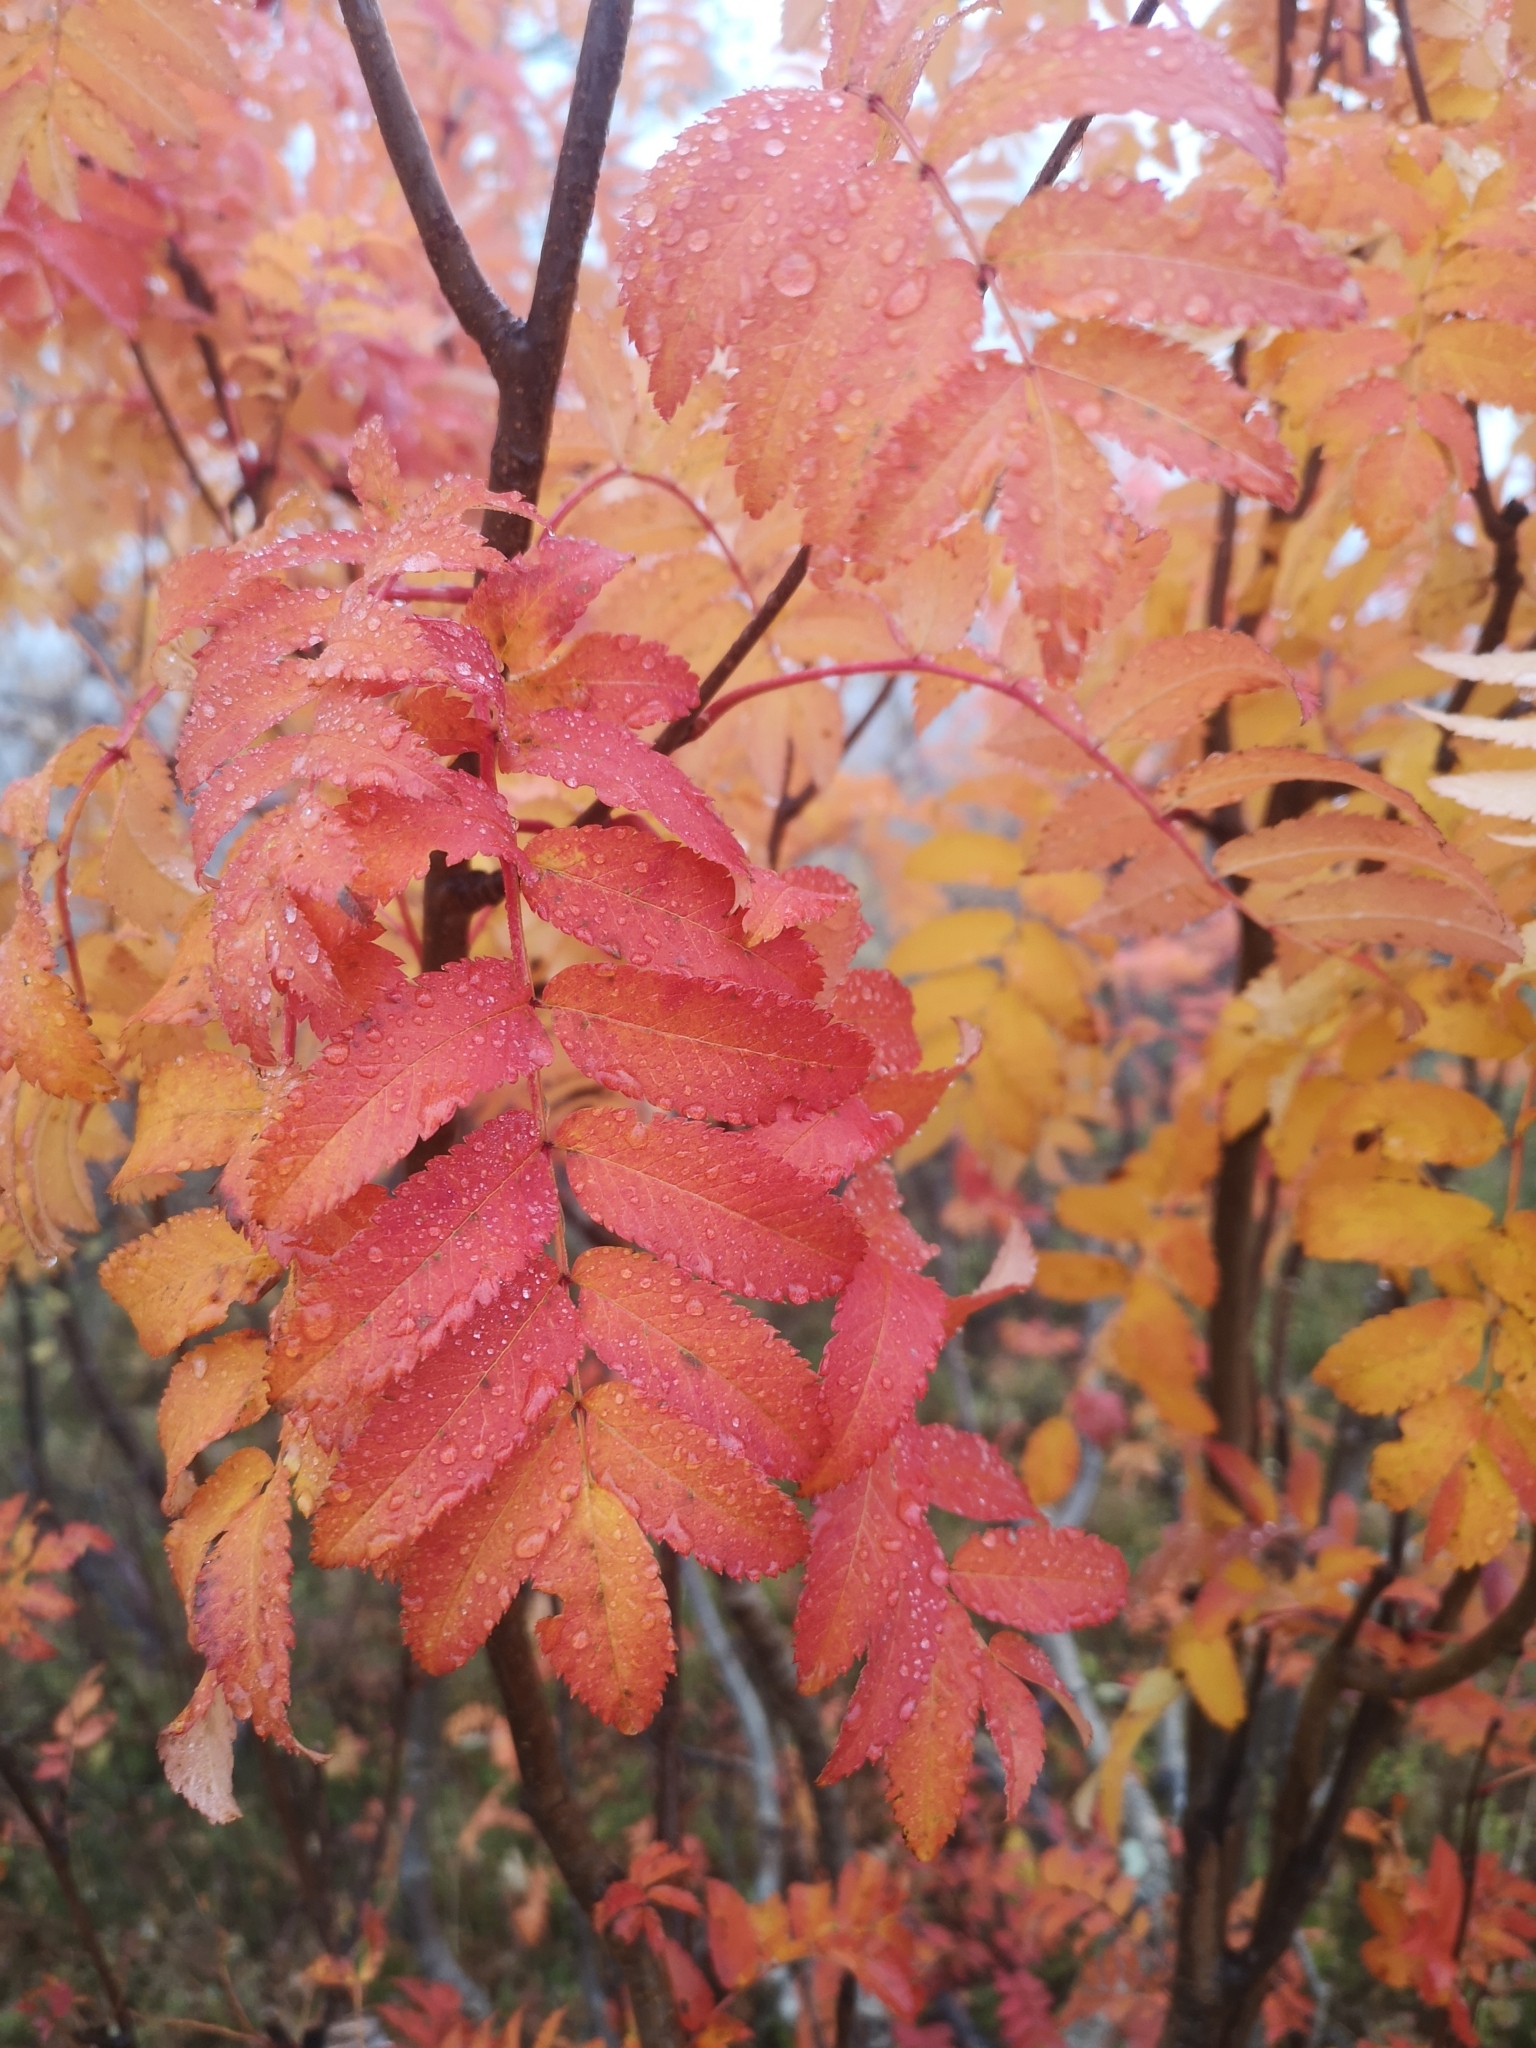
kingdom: Plantae
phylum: Tracheophyta
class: Magnoliopsida
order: Rosales
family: Rosaceae
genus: Sorbus
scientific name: Sorbus aucuparia
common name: Rowan
